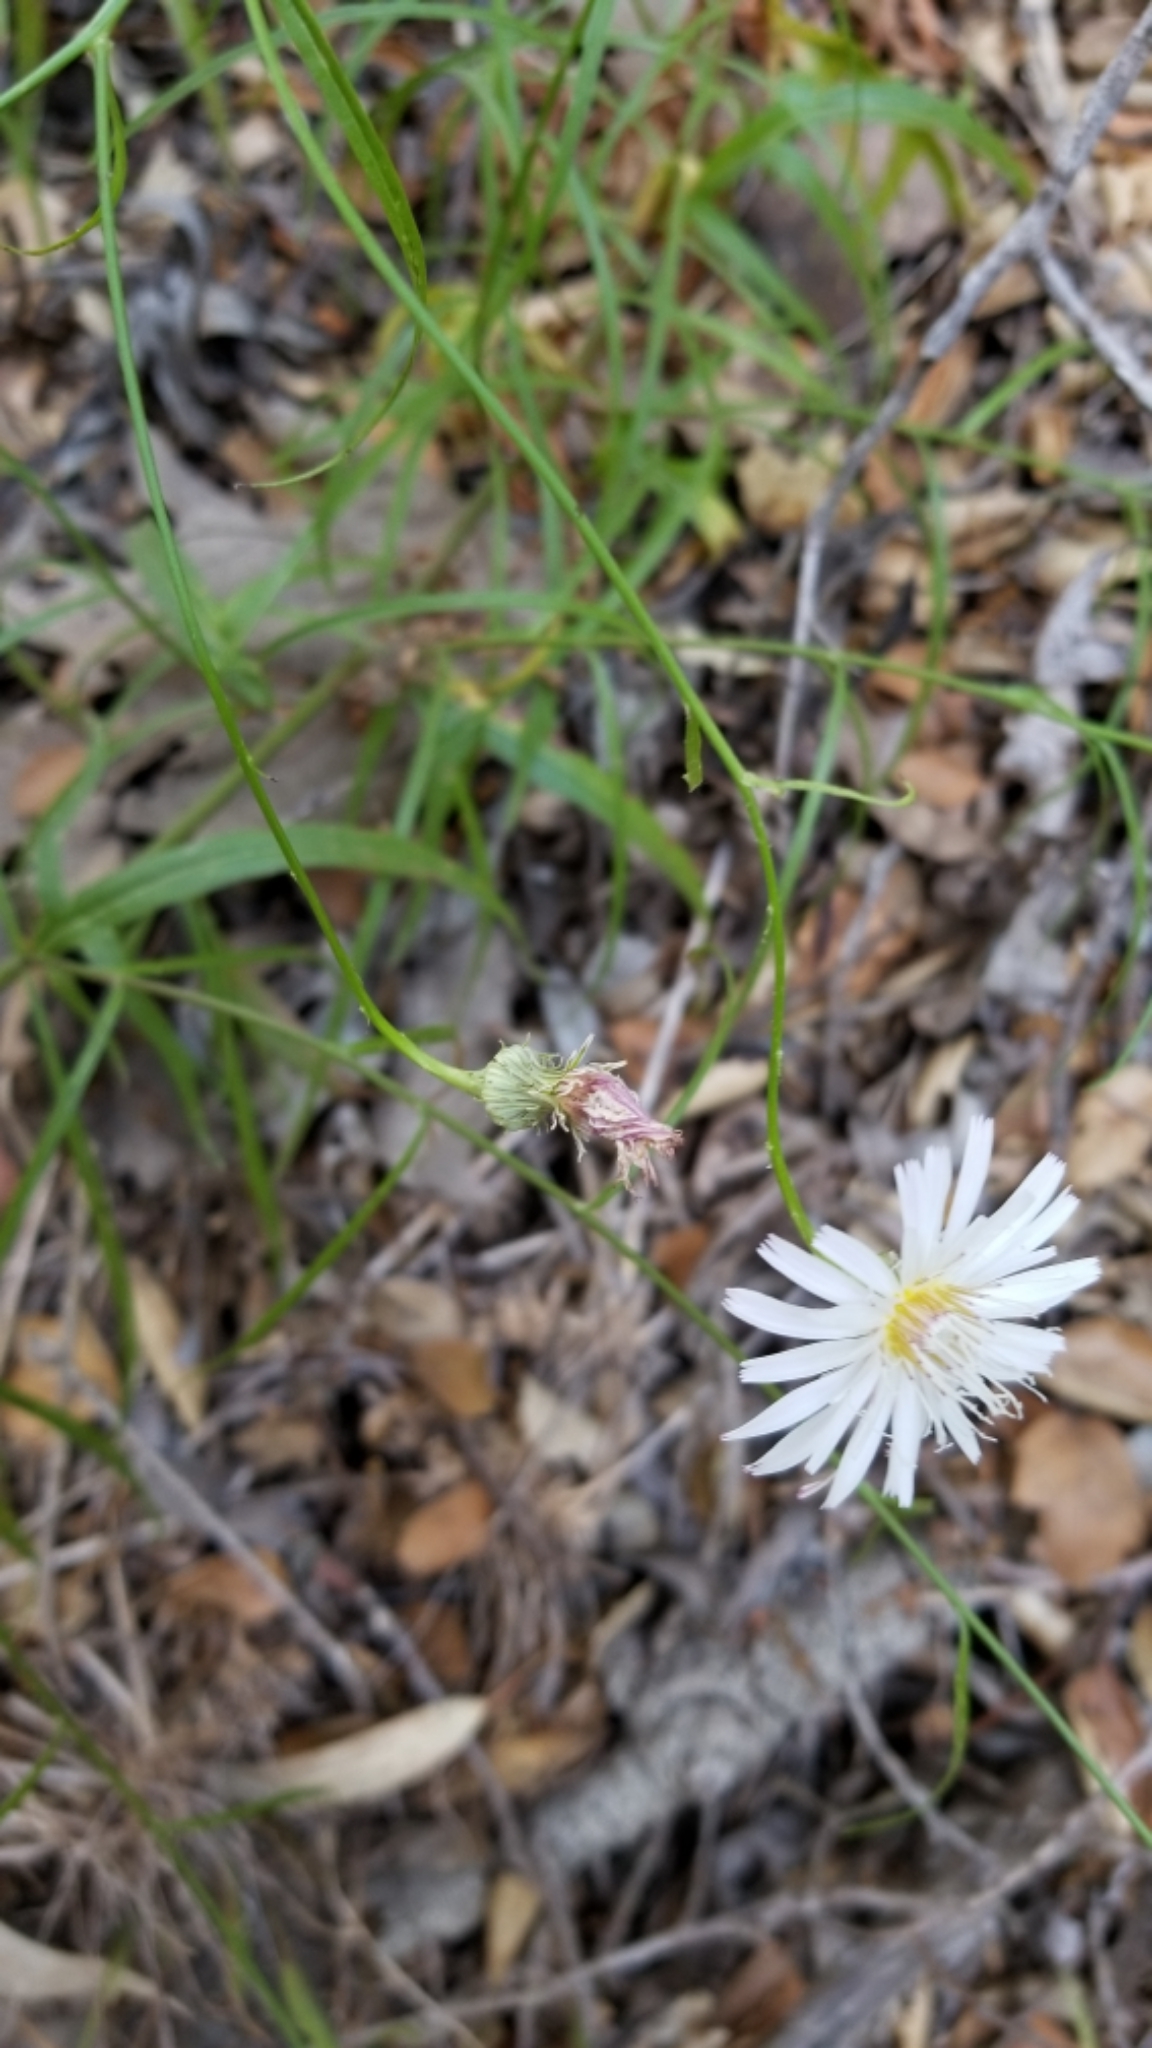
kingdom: Plantae
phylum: Tracheophyta
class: Magnoliopsida
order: Asterales
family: Asteraceae
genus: Malacothrix
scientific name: Malacothrix saxatilis
